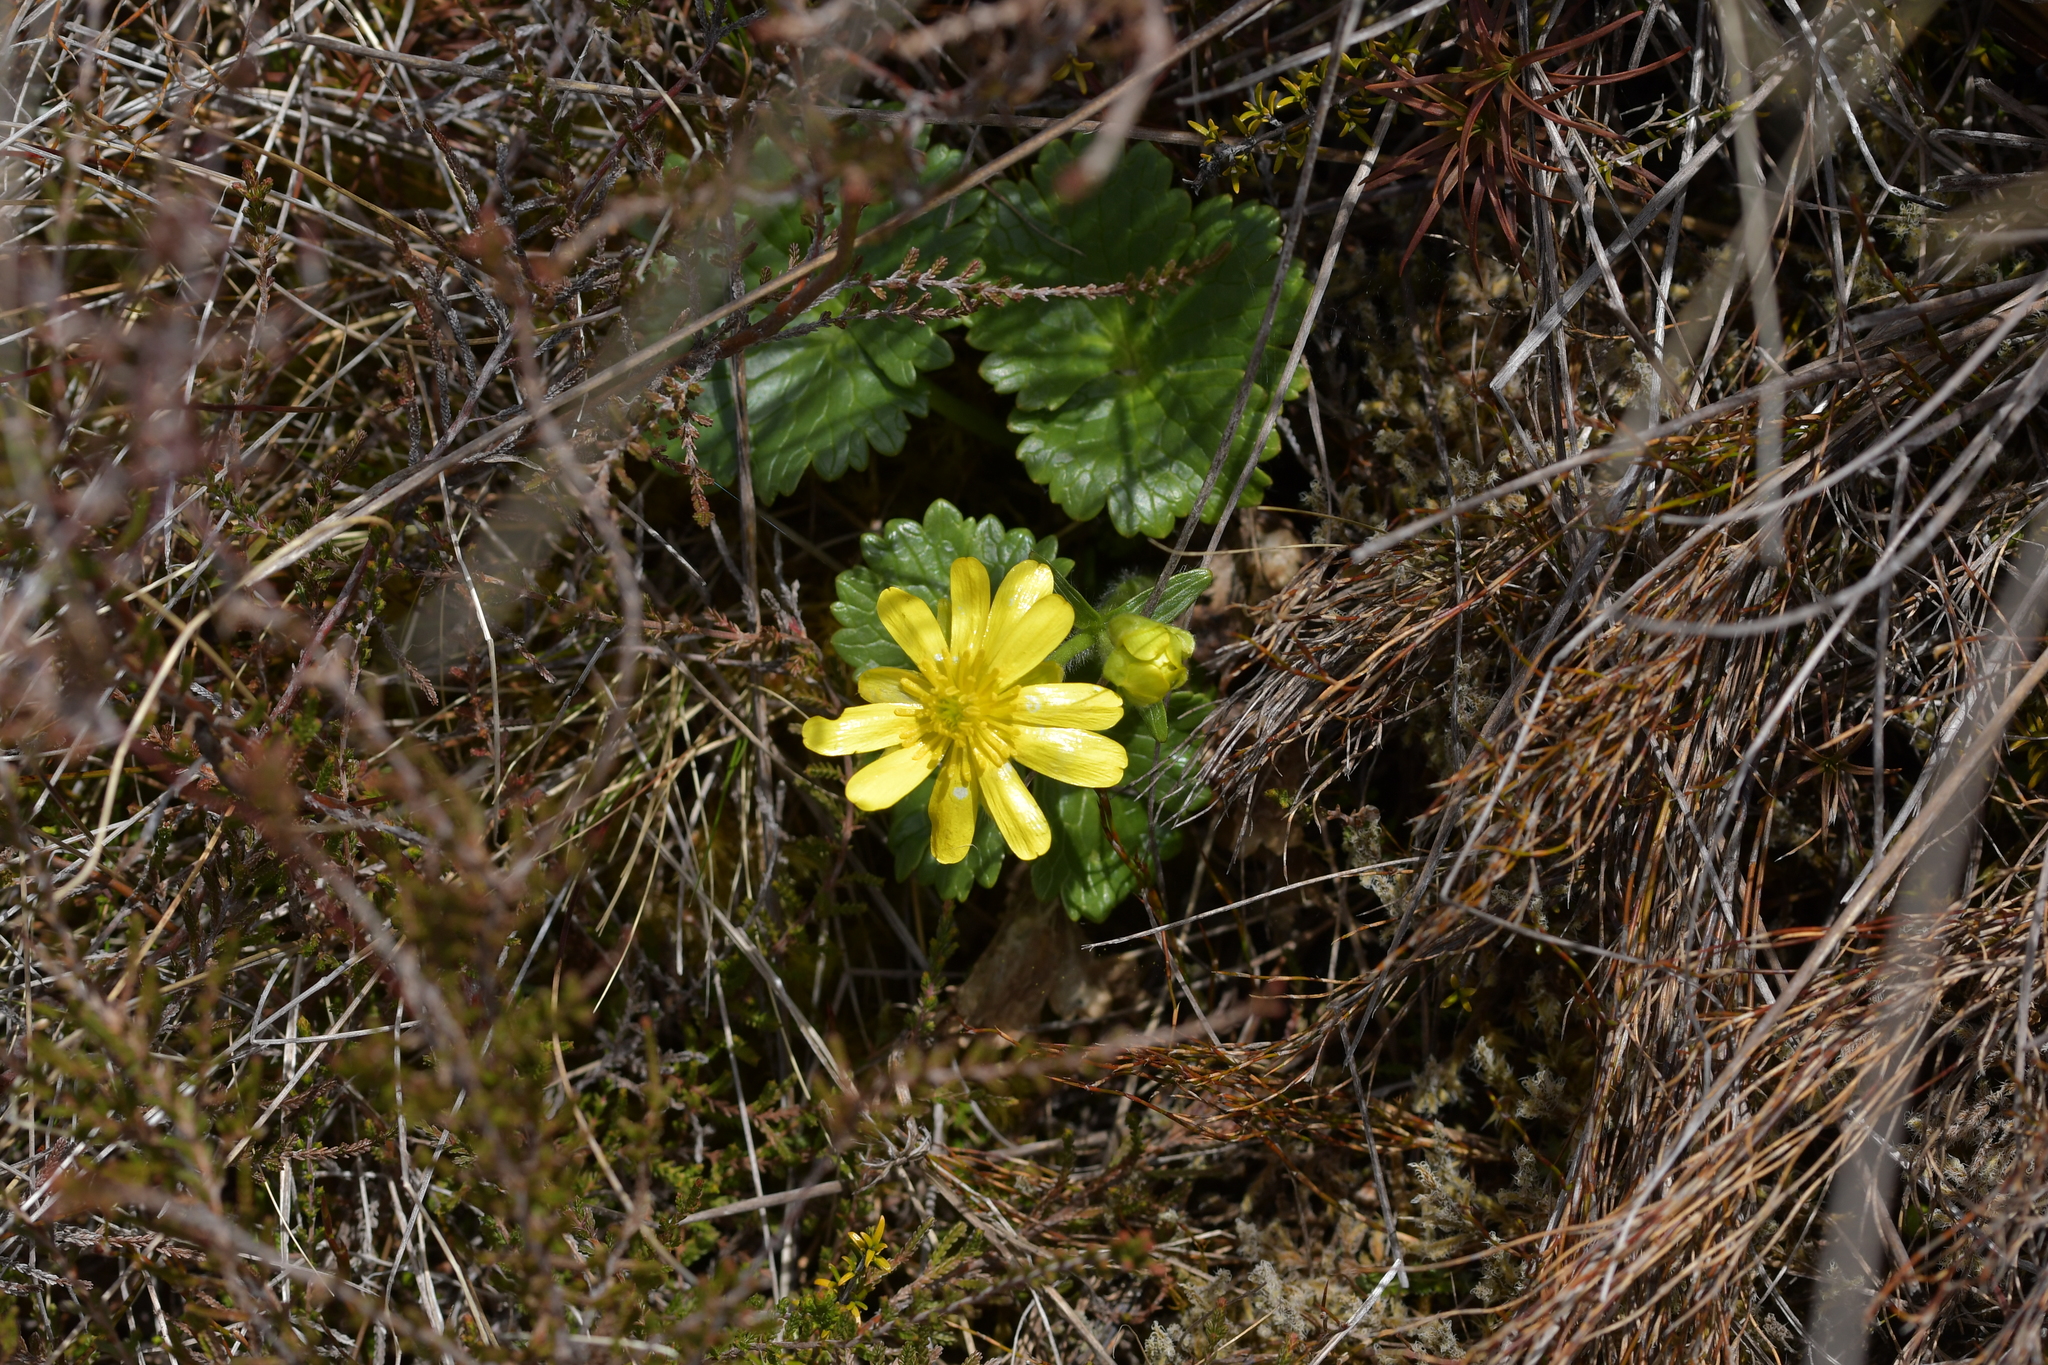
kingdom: Plantae
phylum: Tracheophyta
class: Magnoliopsida
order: Ranunculales
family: Ranunculaceae
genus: Ranunculus
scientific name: Ranunculus nivicola
